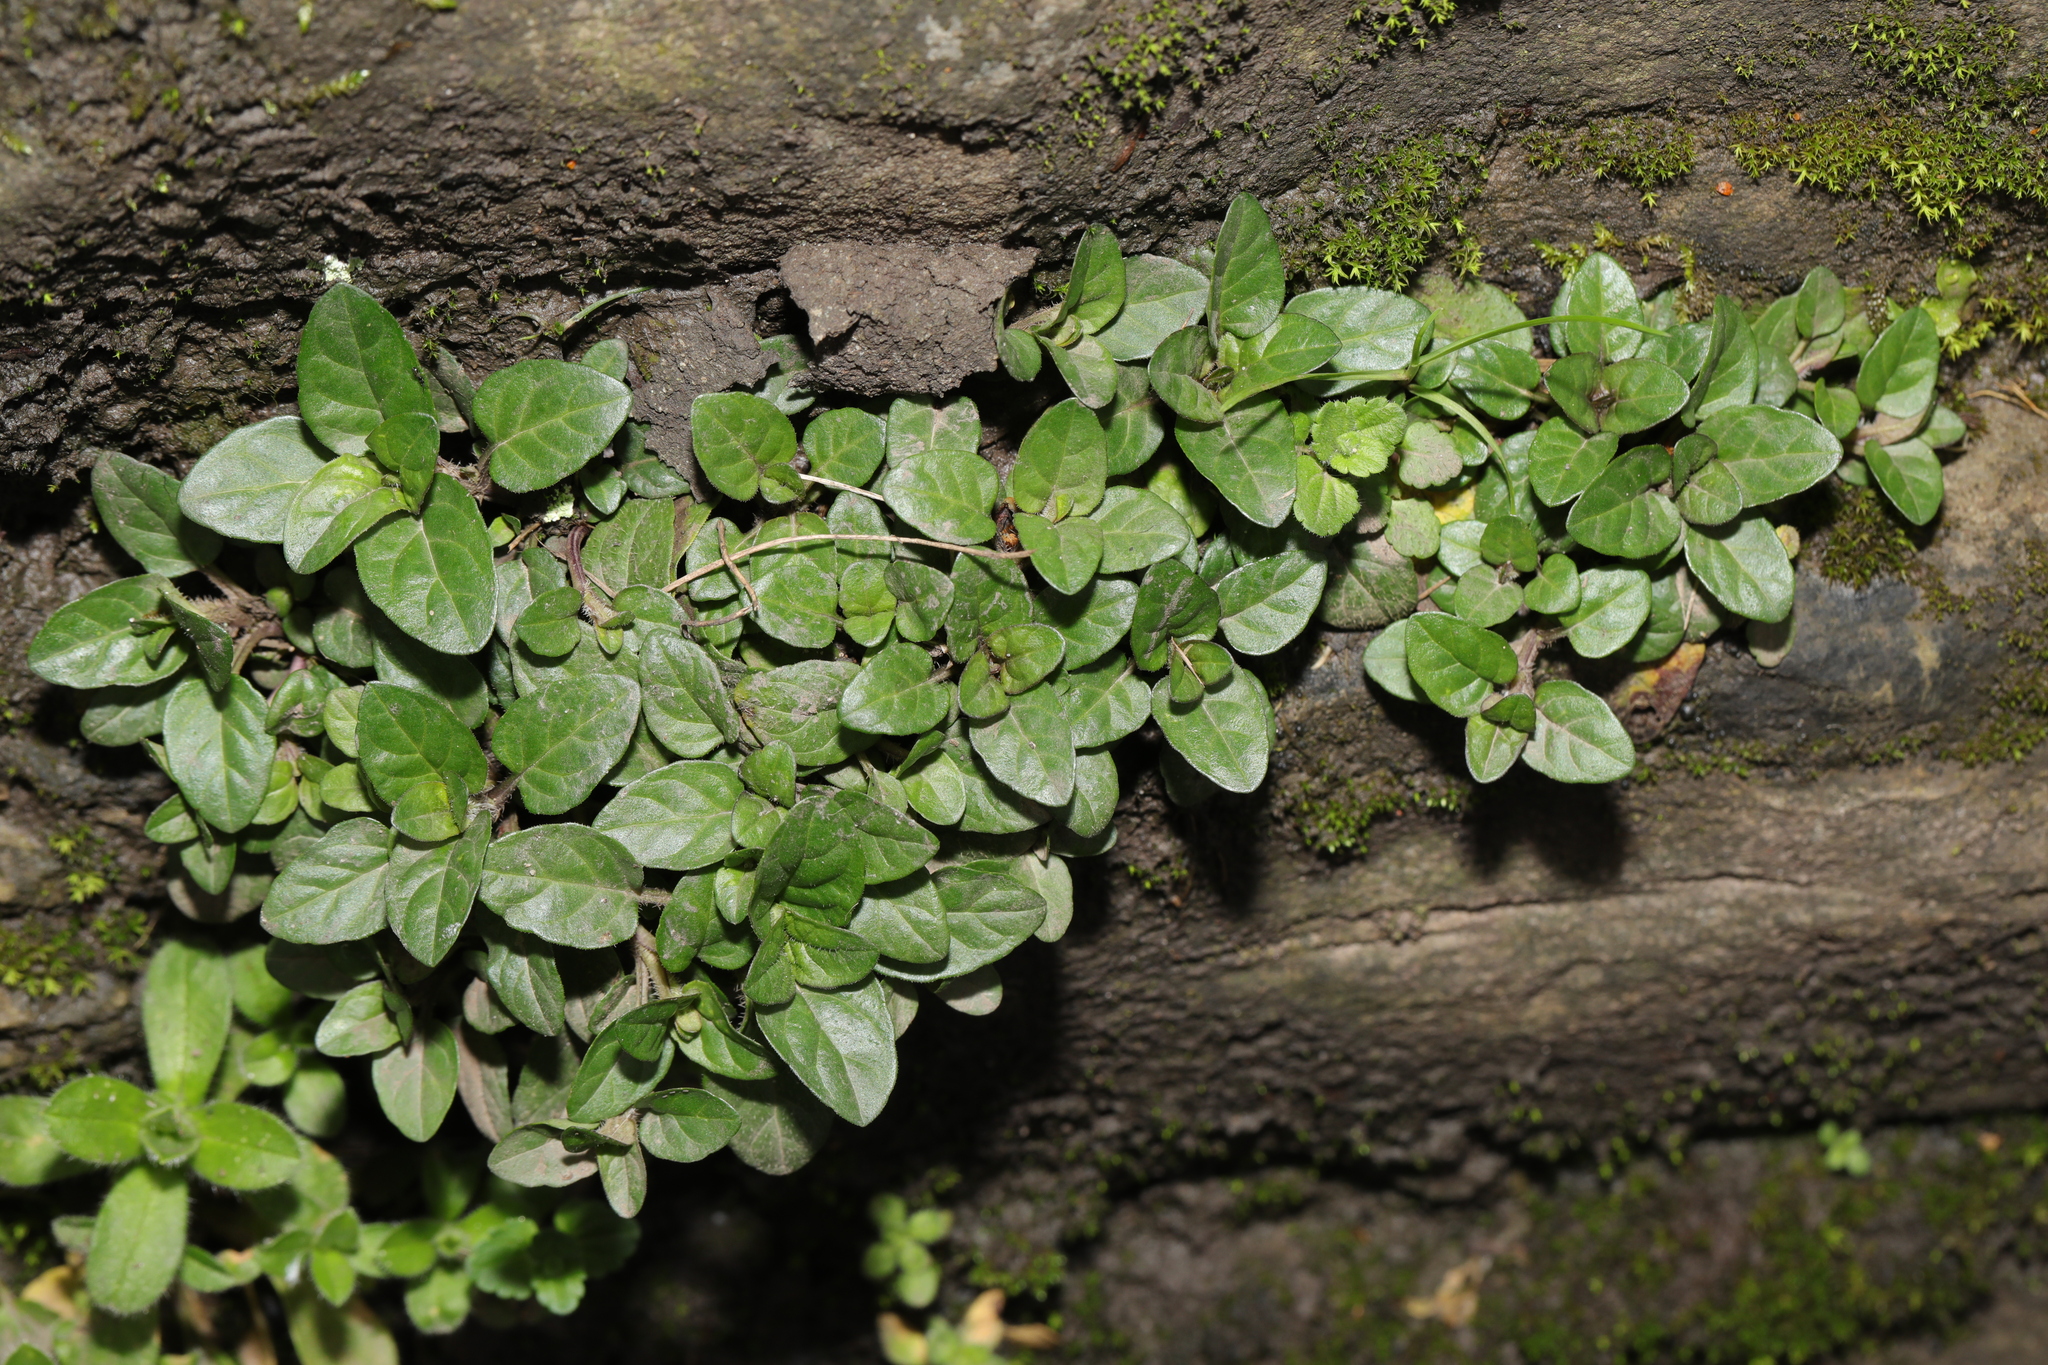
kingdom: Plantae
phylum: Tracheophyta
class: Magnoliopsida
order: Lamiales
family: Lamiaceae
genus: Prunella
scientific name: Prunella vulgaris
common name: Heal-all
